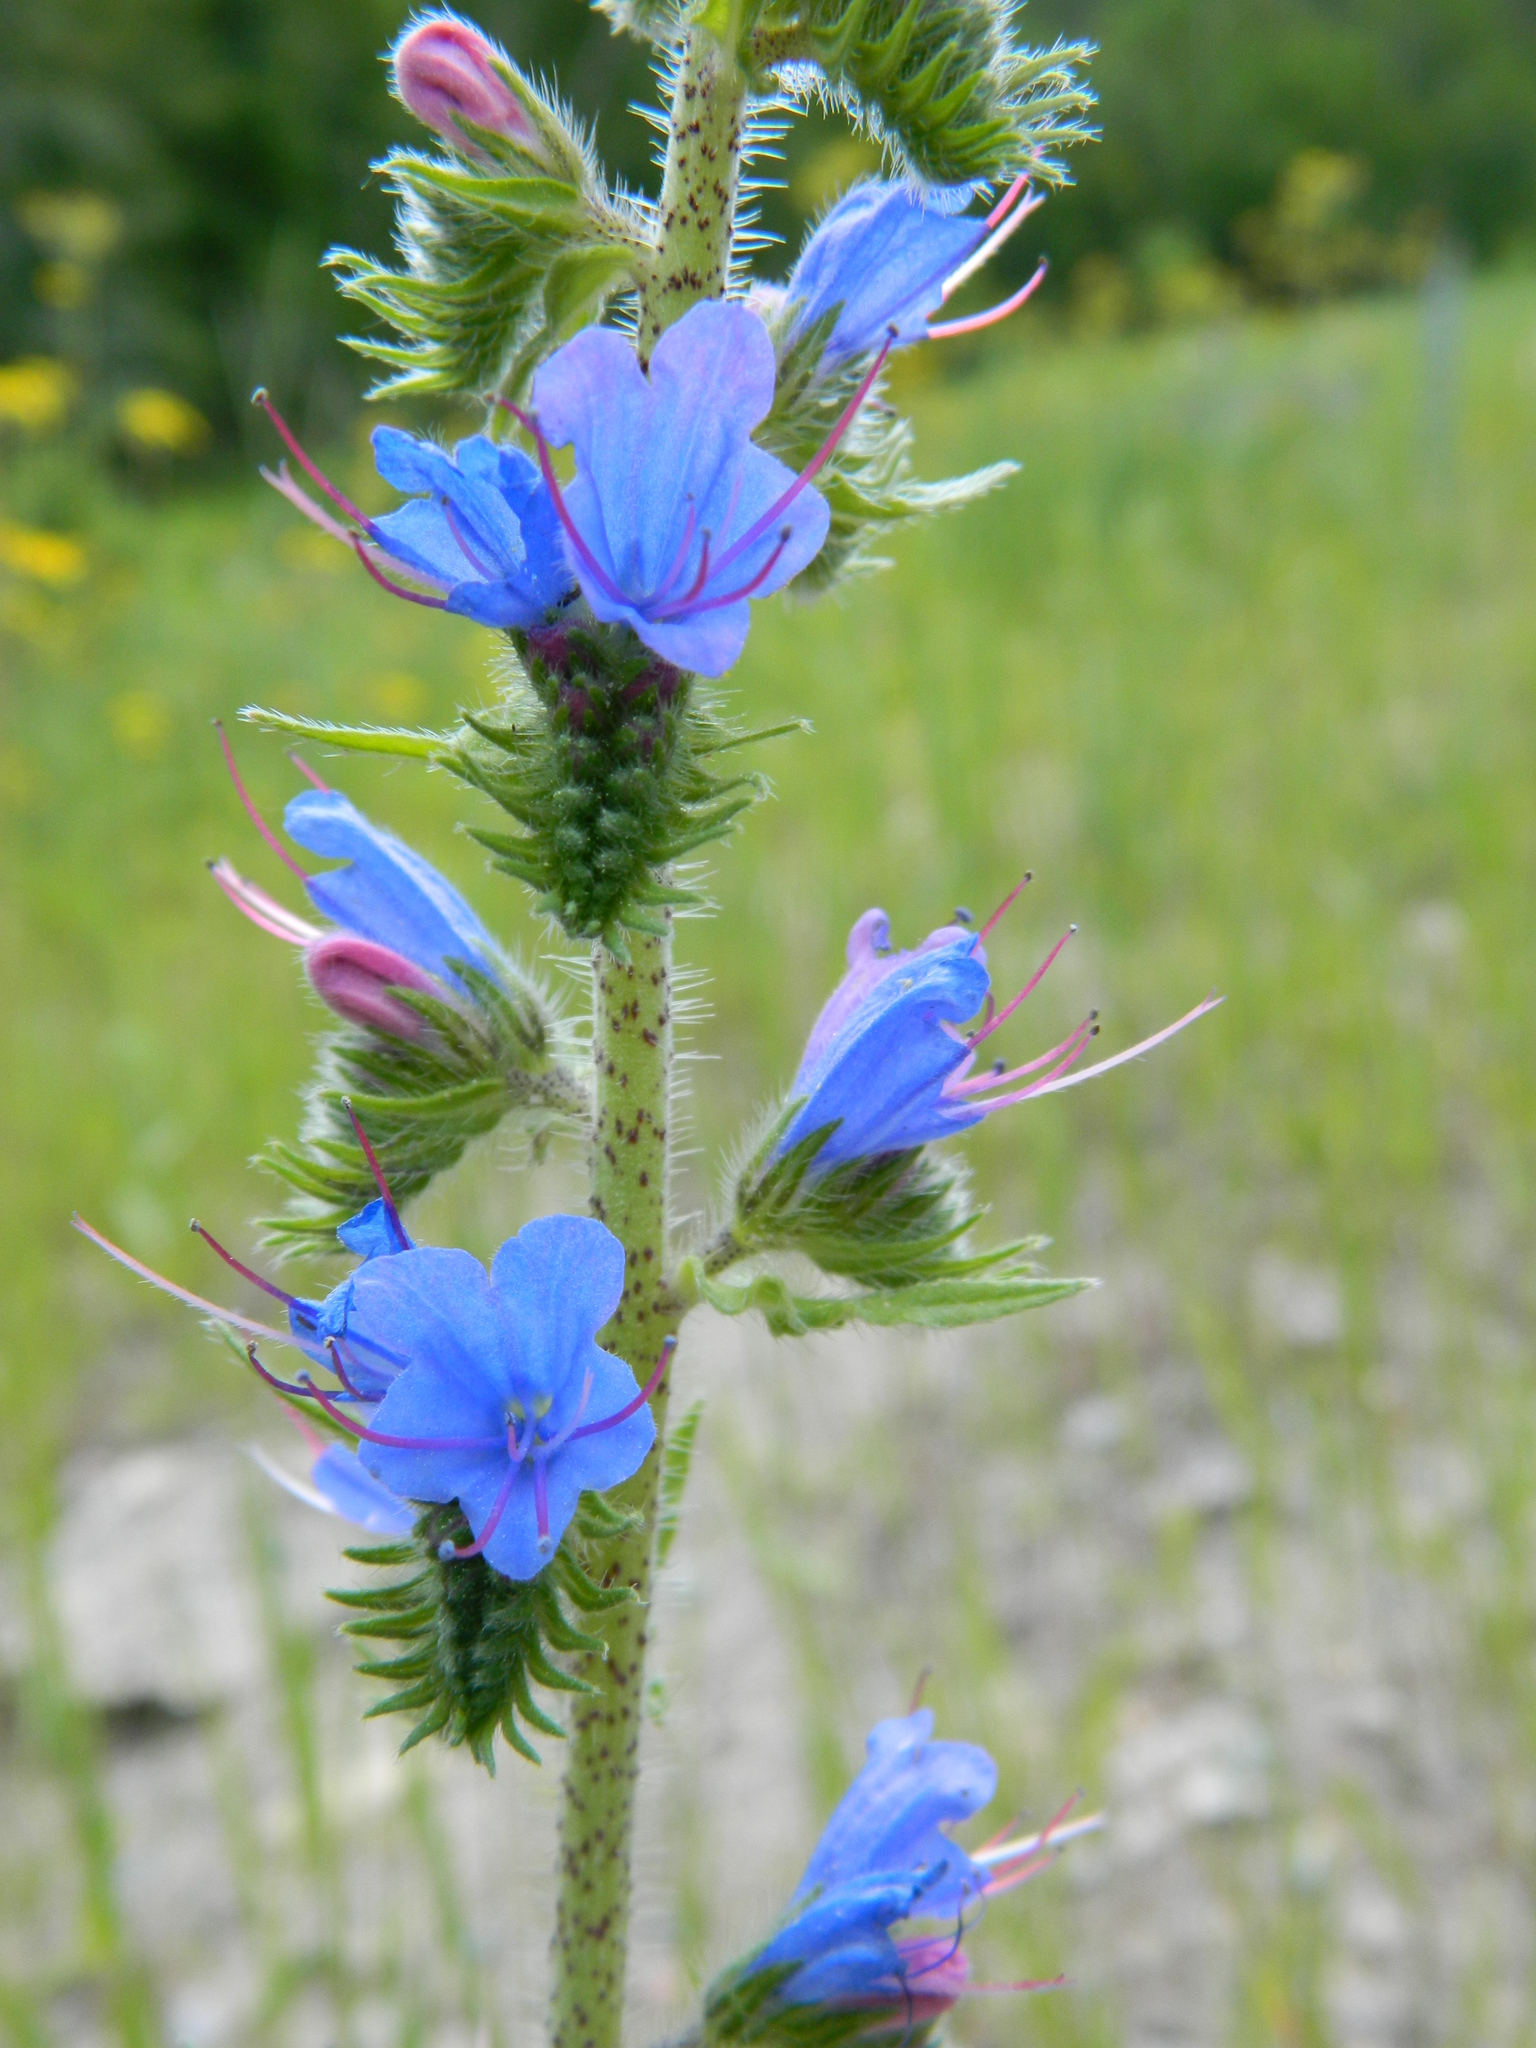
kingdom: Plantae
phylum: Tracheophyta
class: Magnoliopsida
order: Boraginales
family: Boraginaceae
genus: Echium
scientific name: Echium vulgare
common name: Common viper's bugloss
